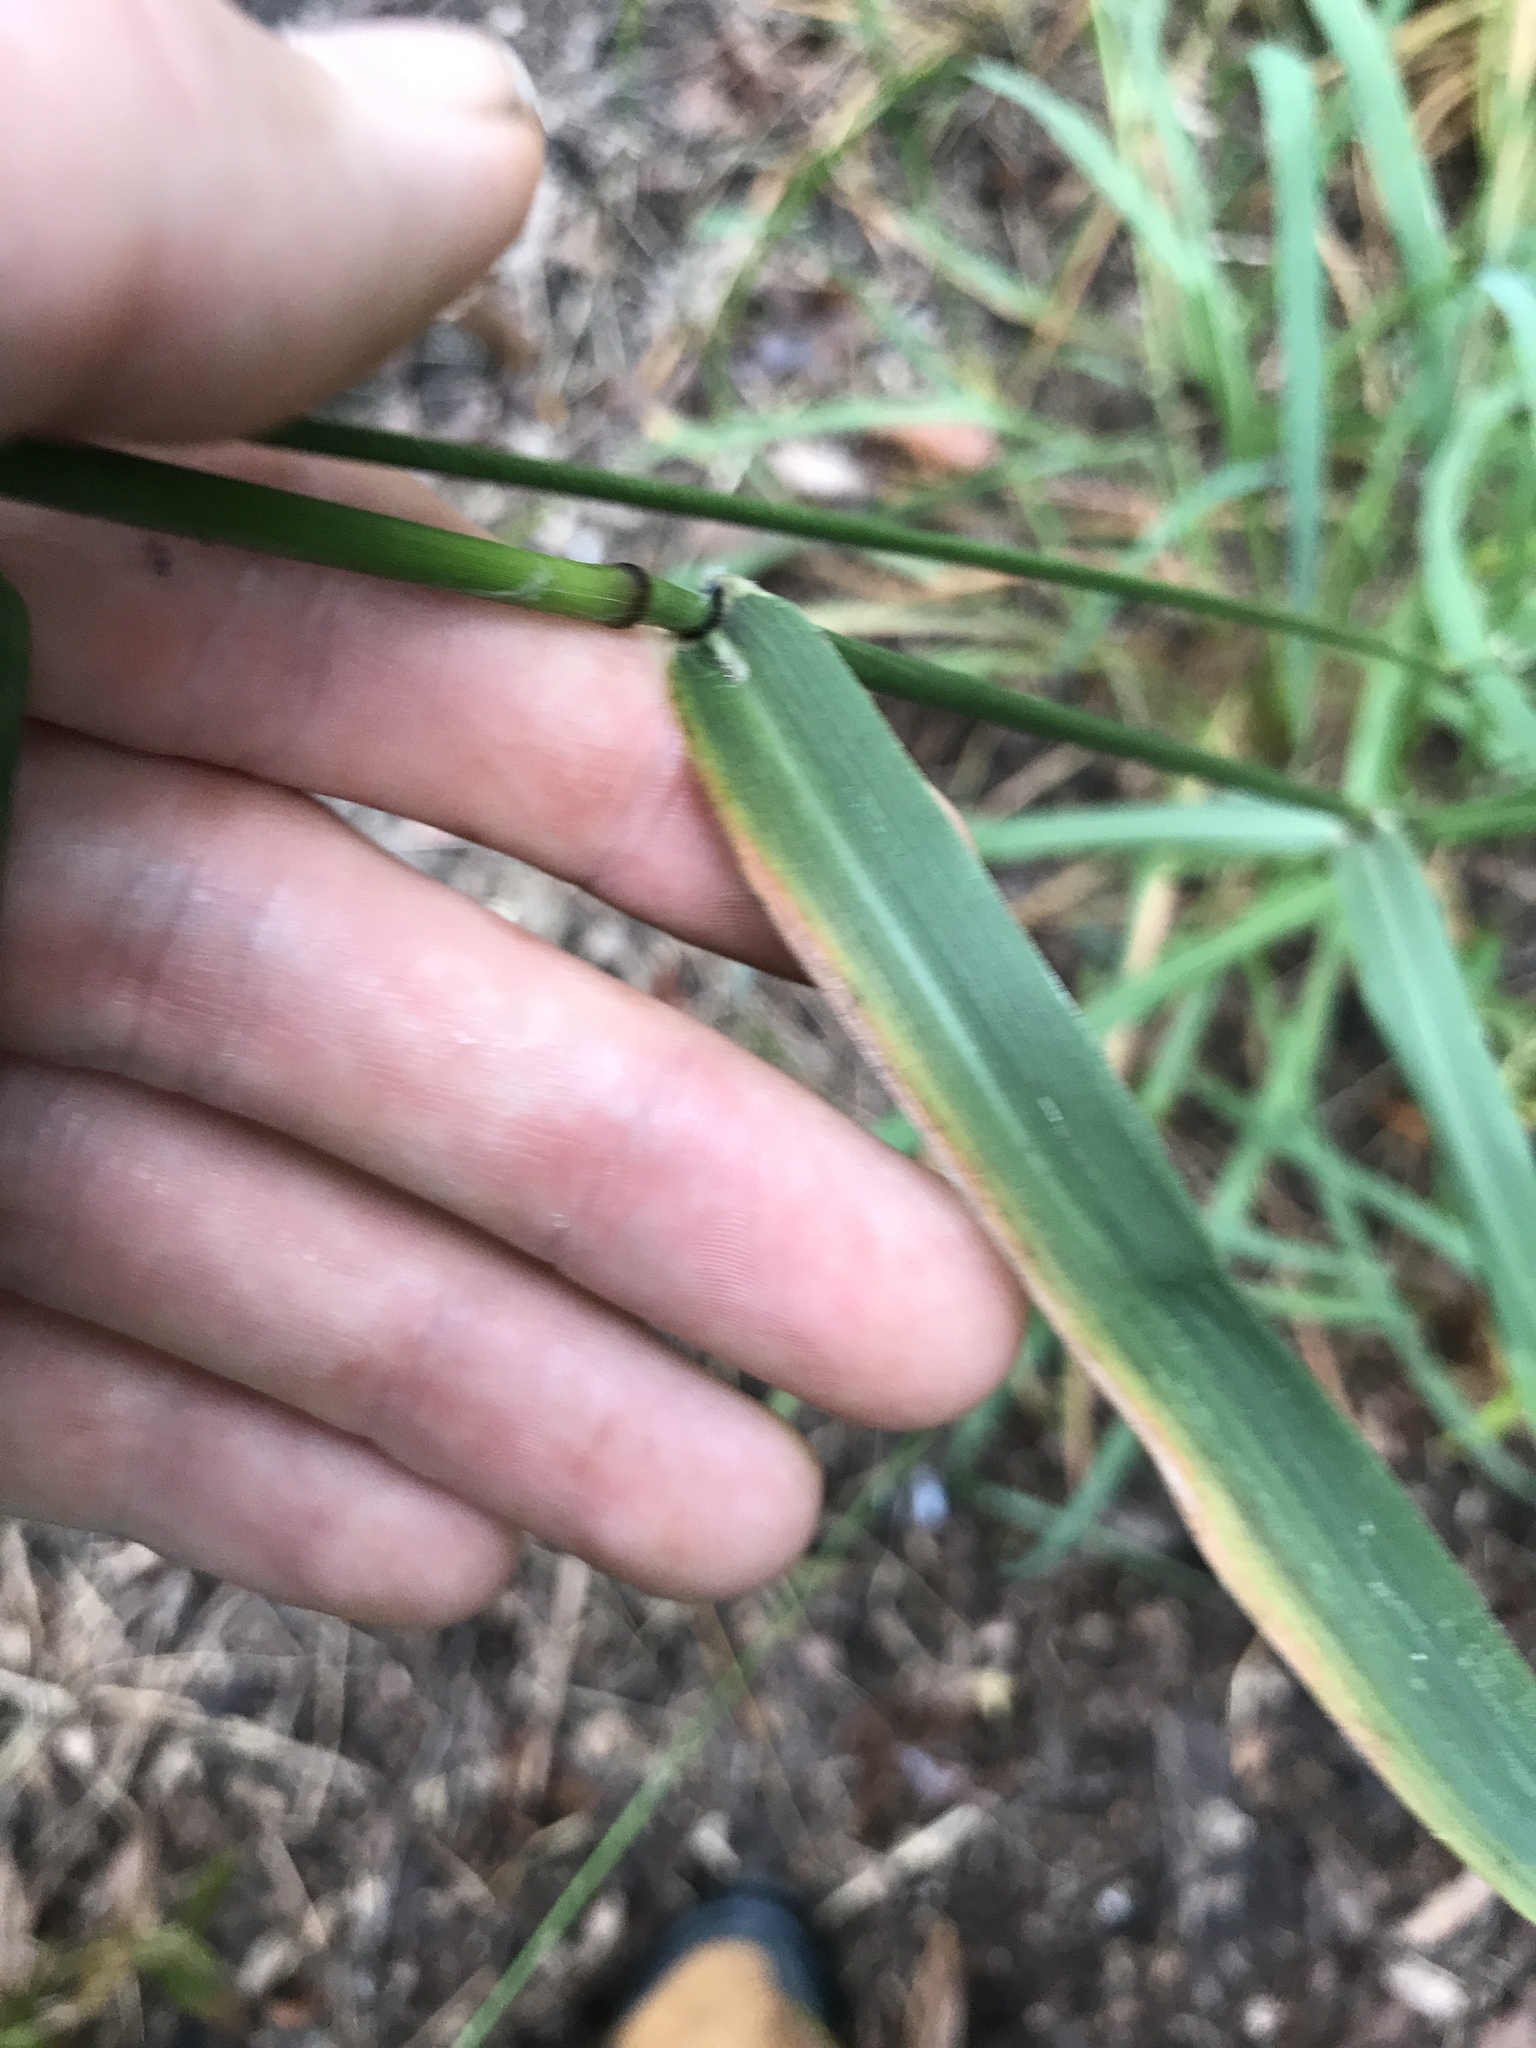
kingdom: Plantae
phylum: Tracheophyta
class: Liliopsida
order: Poales
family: Poaceae
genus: Tridens
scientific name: Tridens flavus
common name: Purpletop
